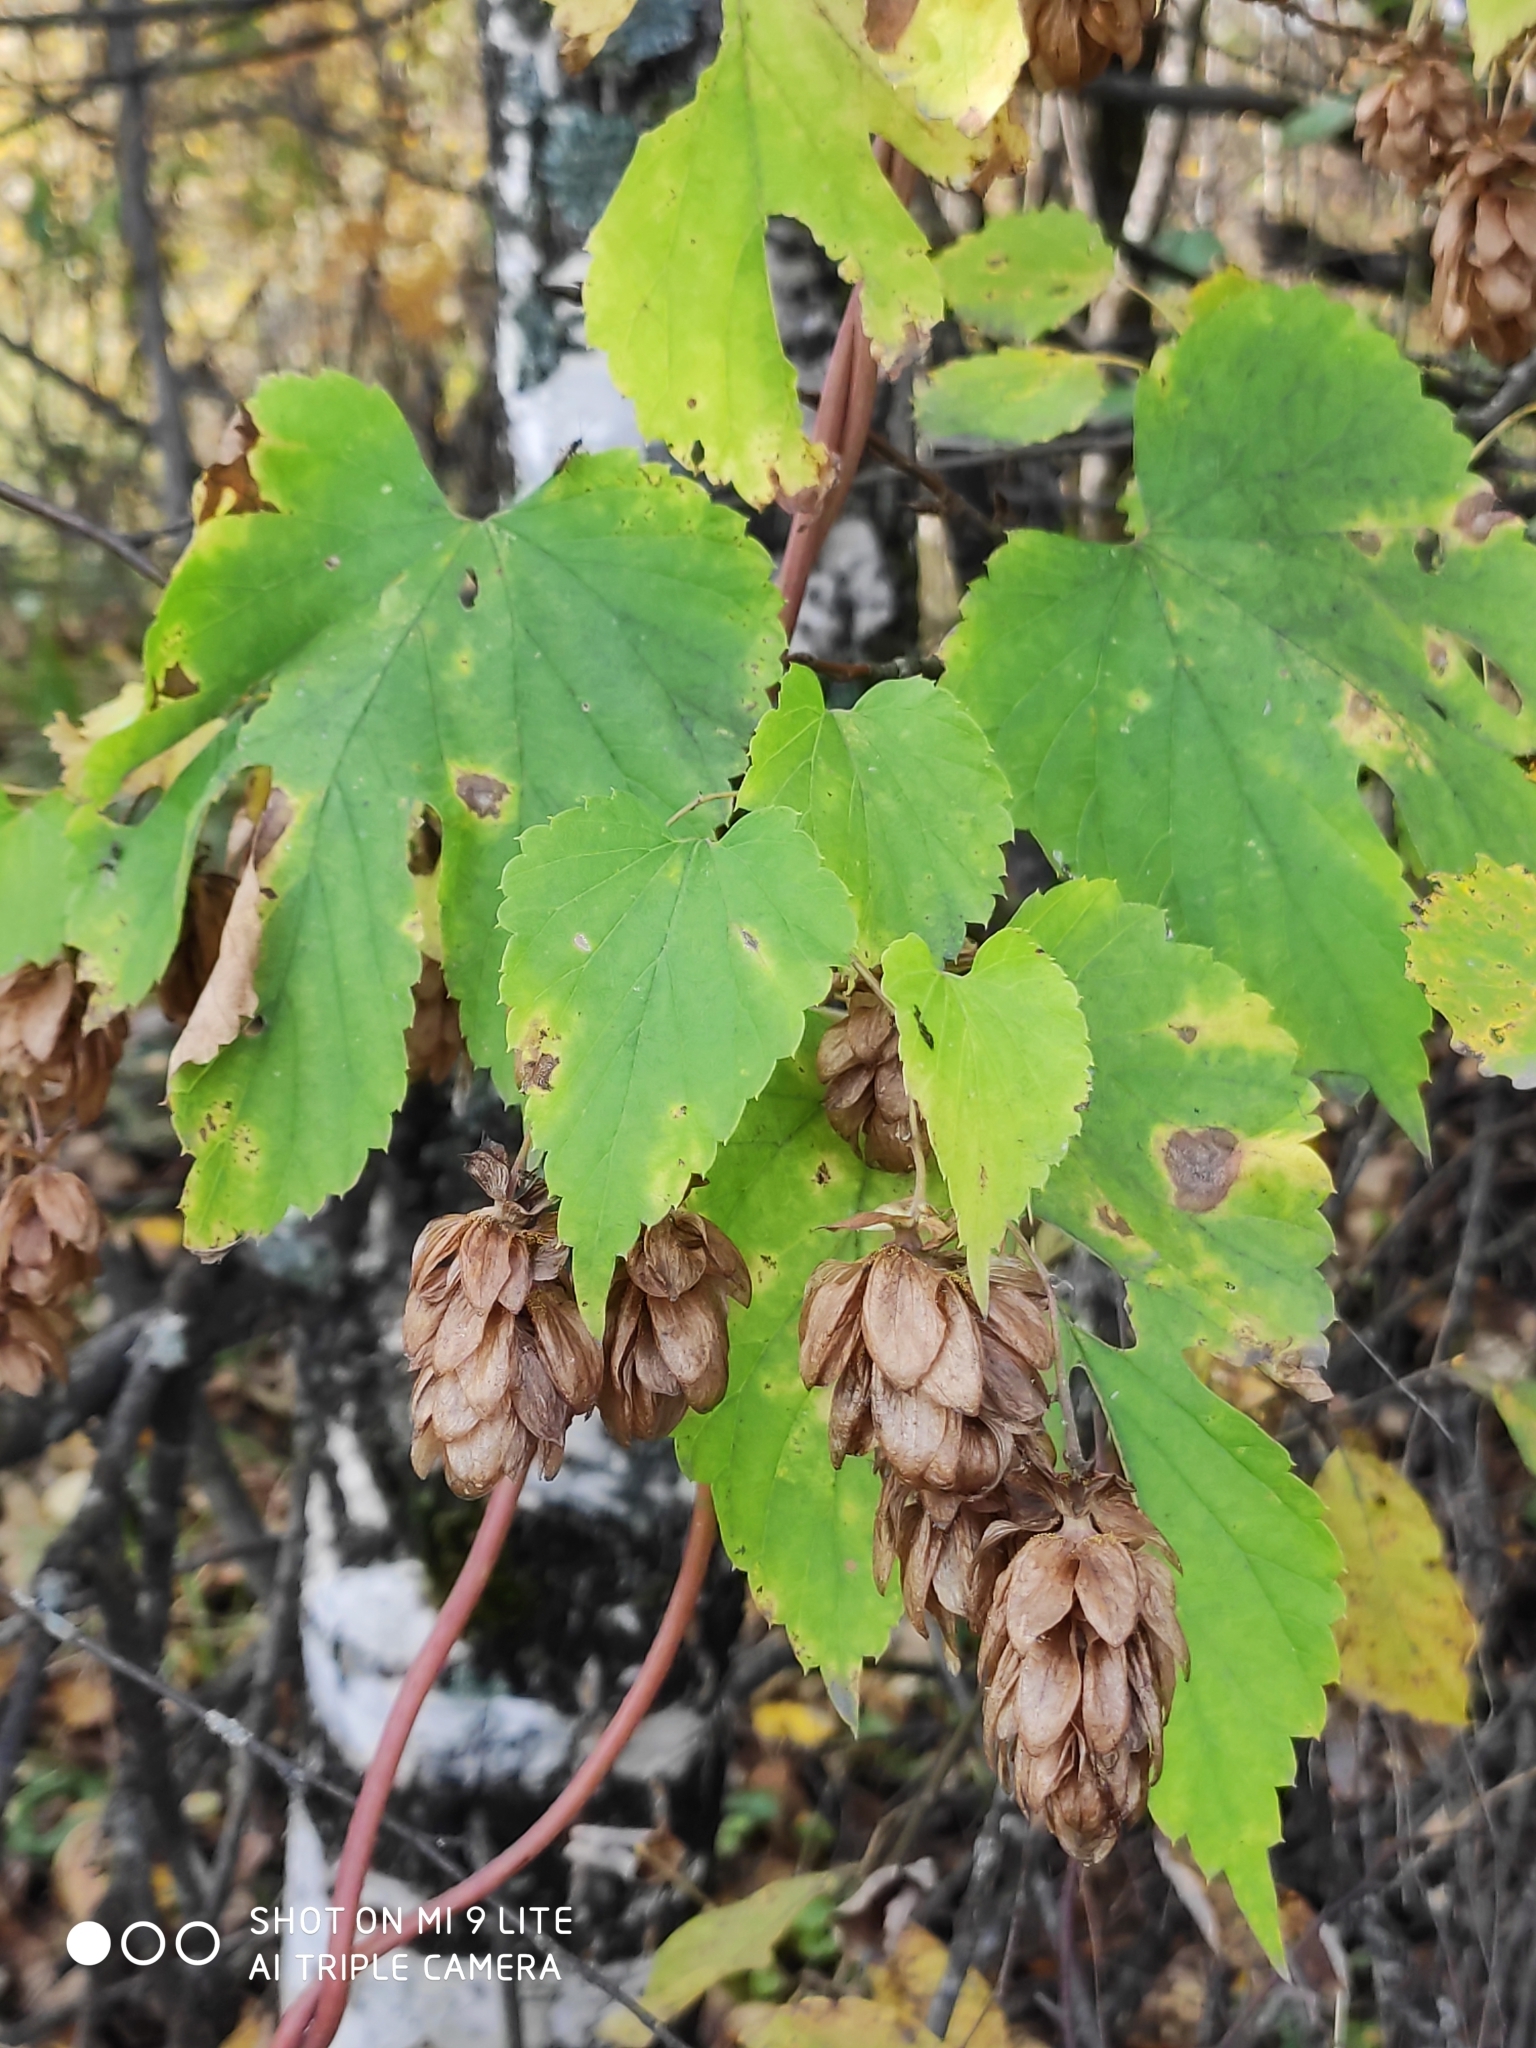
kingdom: Plantae
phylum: Tracheophyta
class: Magnoliopsida
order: Rosales
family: Cannabaceae
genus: Humulus
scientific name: Humulus lupulus
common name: Hop
